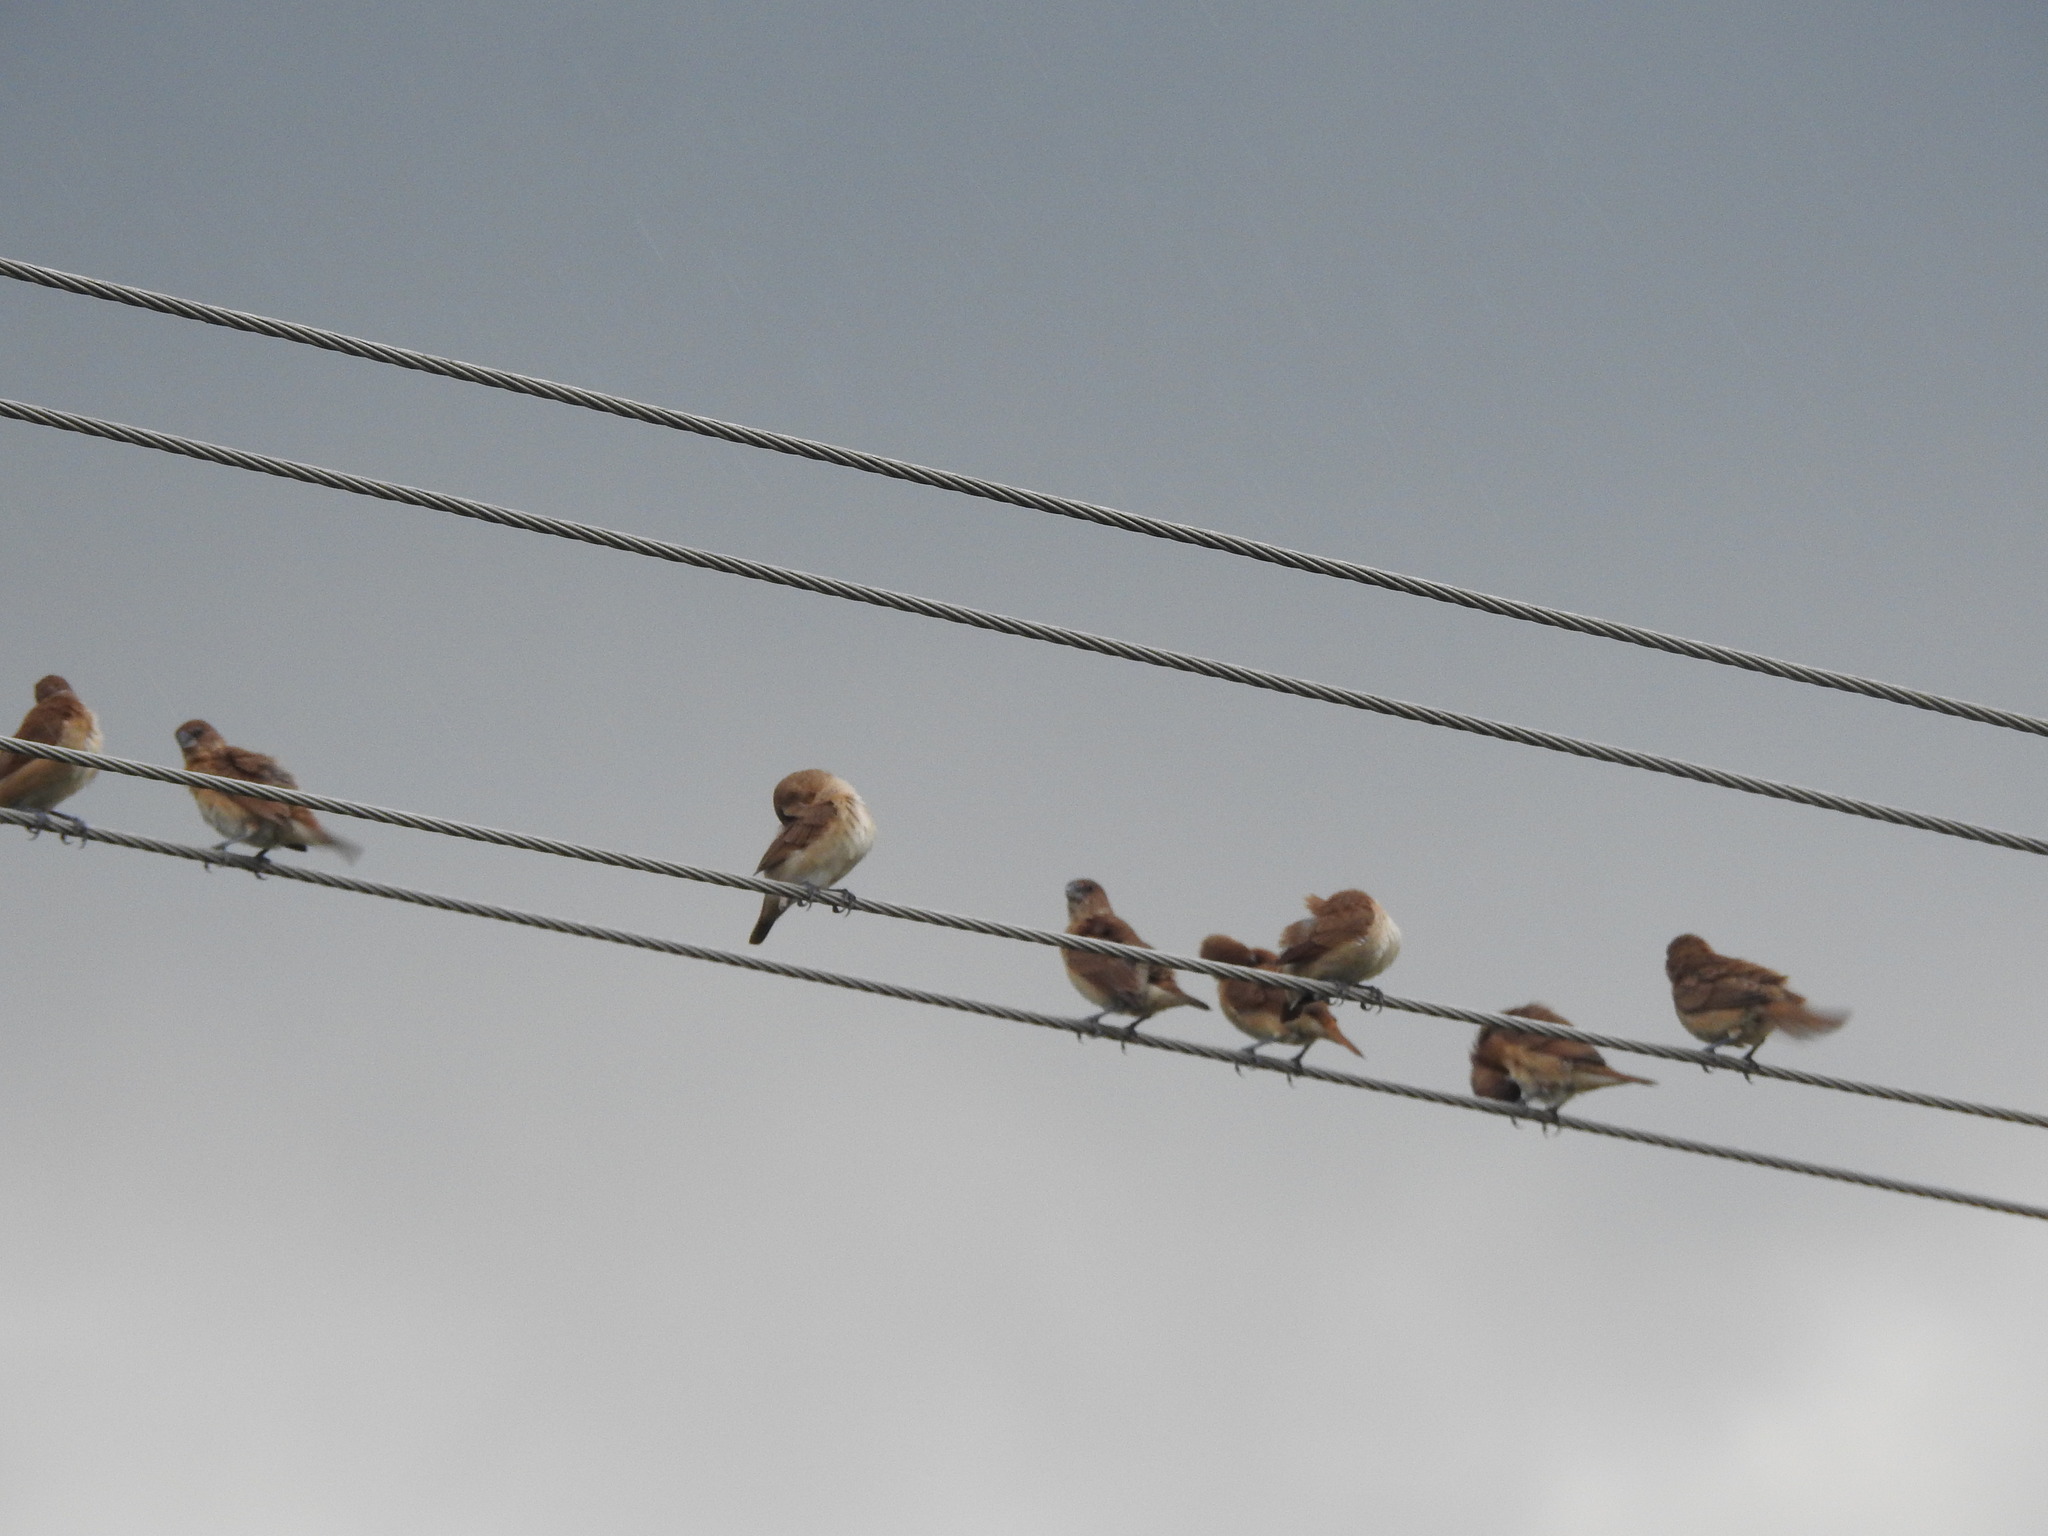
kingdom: Animalia
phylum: Chordata
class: Aves
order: Passeriformes
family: Estrildidae
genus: Euodice
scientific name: Euodice malabarica
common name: Indian silverbill
